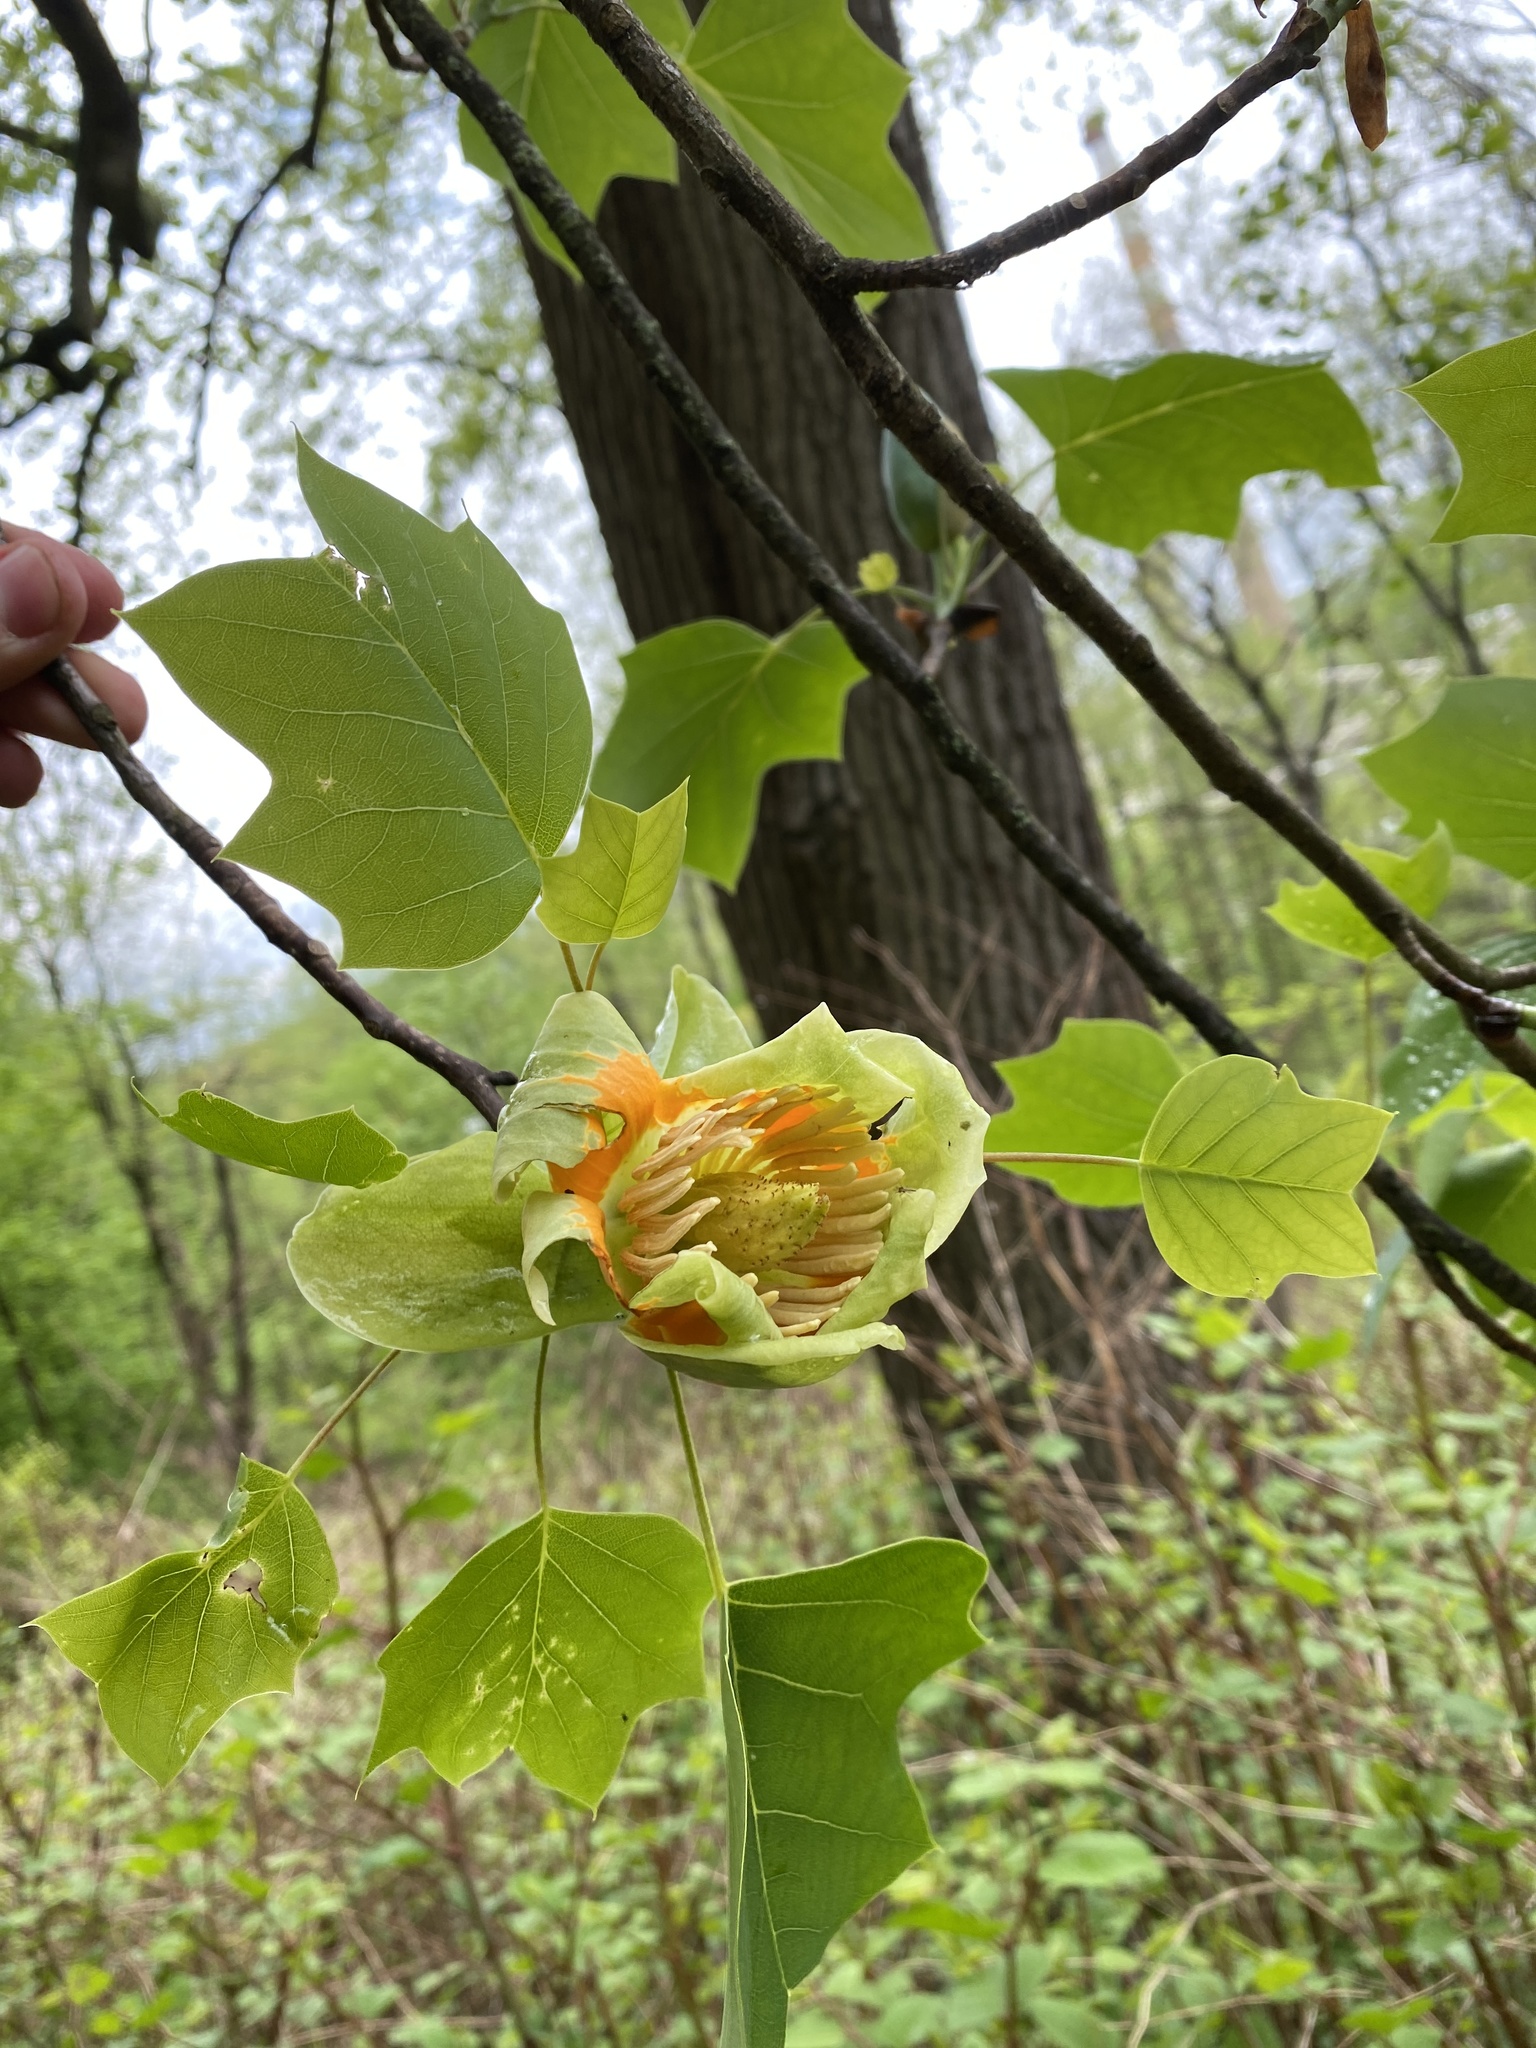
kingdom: Plantae
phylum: Tracheophyta
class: Magnoliopsida
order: Magnoliales
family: Magnoliaceae
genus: Liriodendron
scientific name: Liriodendron tulipifera
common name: Tulip tree
